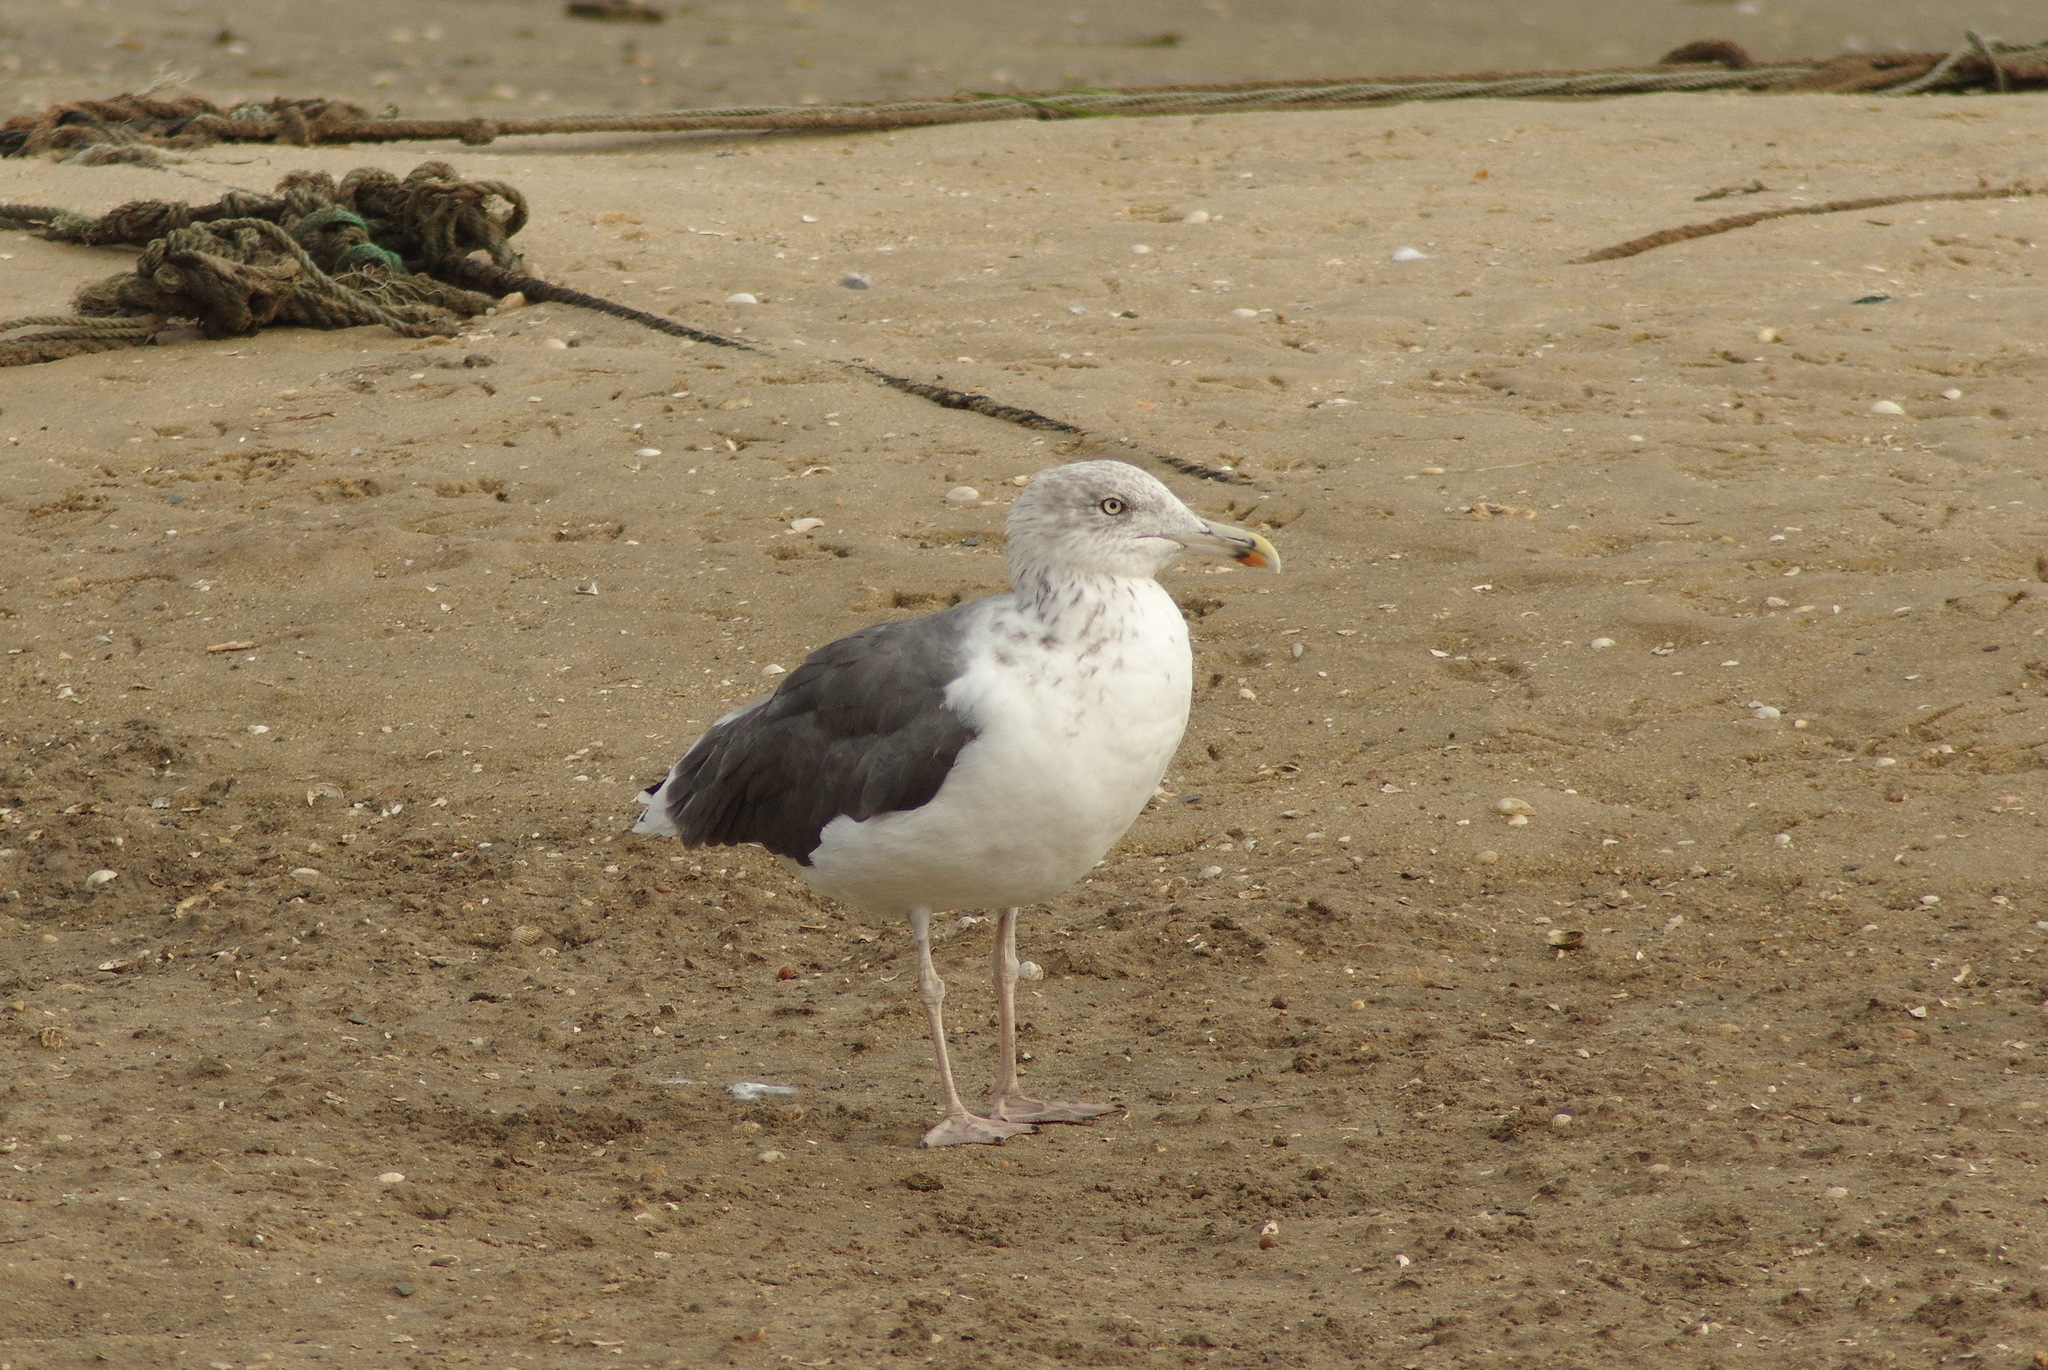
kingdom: Animalia
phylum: Chordata
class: Aves
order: Charadriiformes
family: Laridae
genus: Larus
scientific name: Larus fuscus
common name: Lesser black-backed gull
